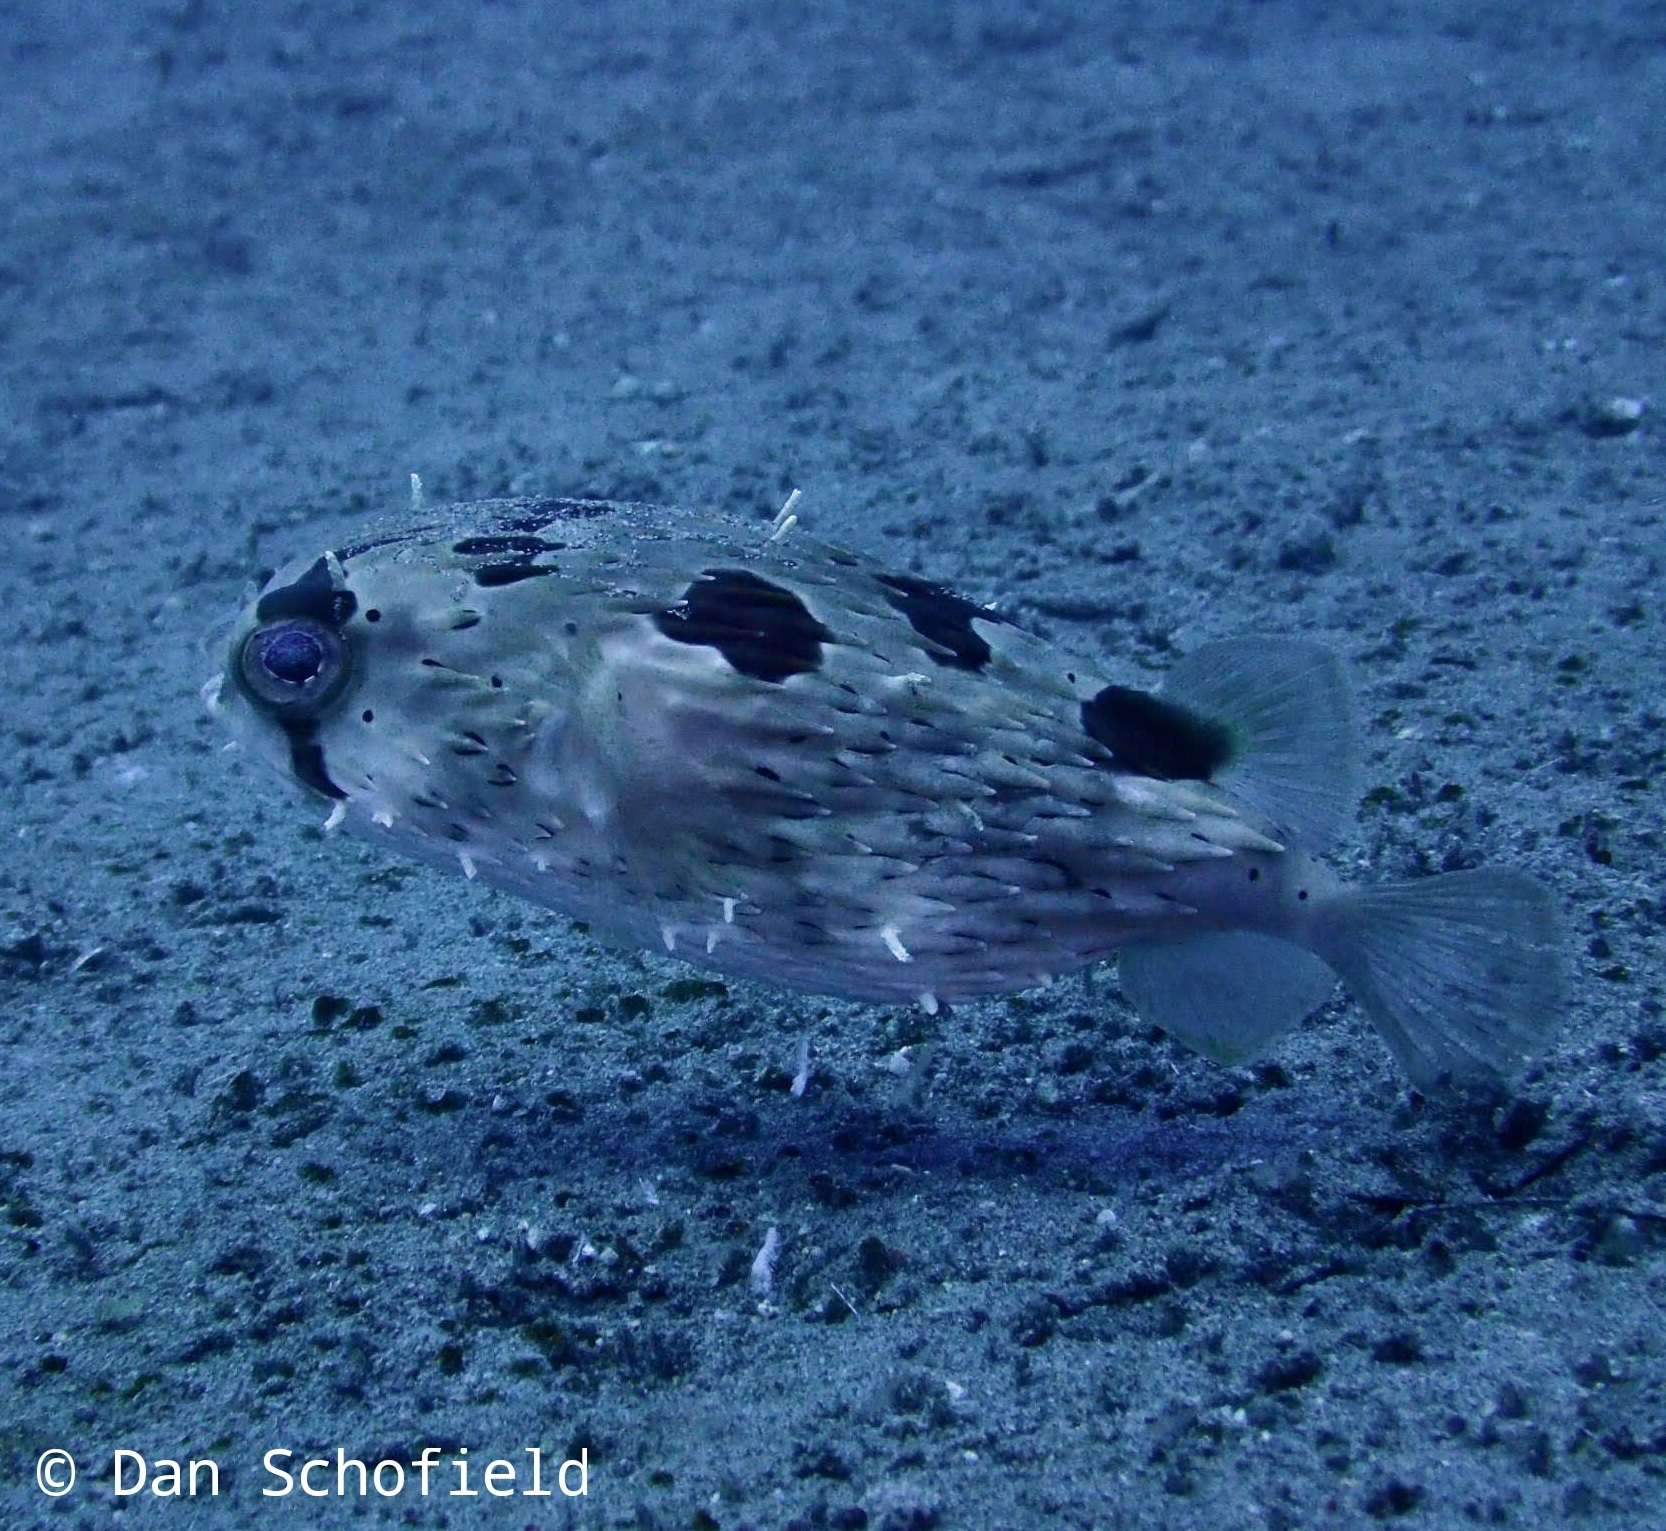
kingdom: Animalia
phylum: Chordata
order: Tetraodontiformes
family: Diodontidae
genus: Diodon
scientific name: Diodon holocanthus
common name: Balloonfish
